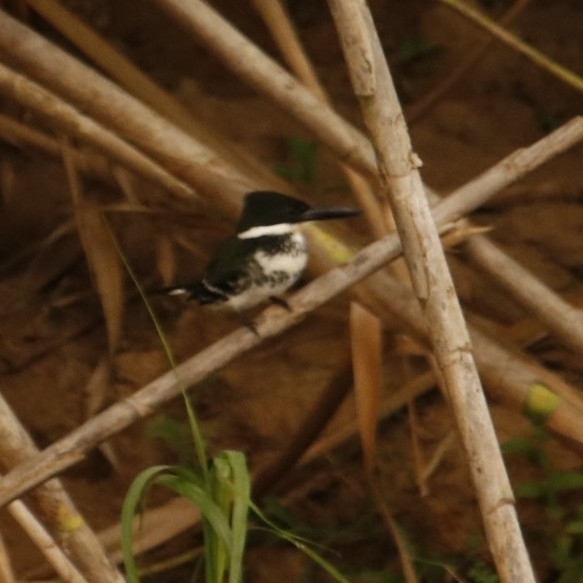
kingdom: Animalia
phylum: Chordata
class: Aves
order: Coraciiformes
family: Alcedinidae
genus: Chloroceryle
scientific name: Chloroceryle americana
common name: Green kingfisher
